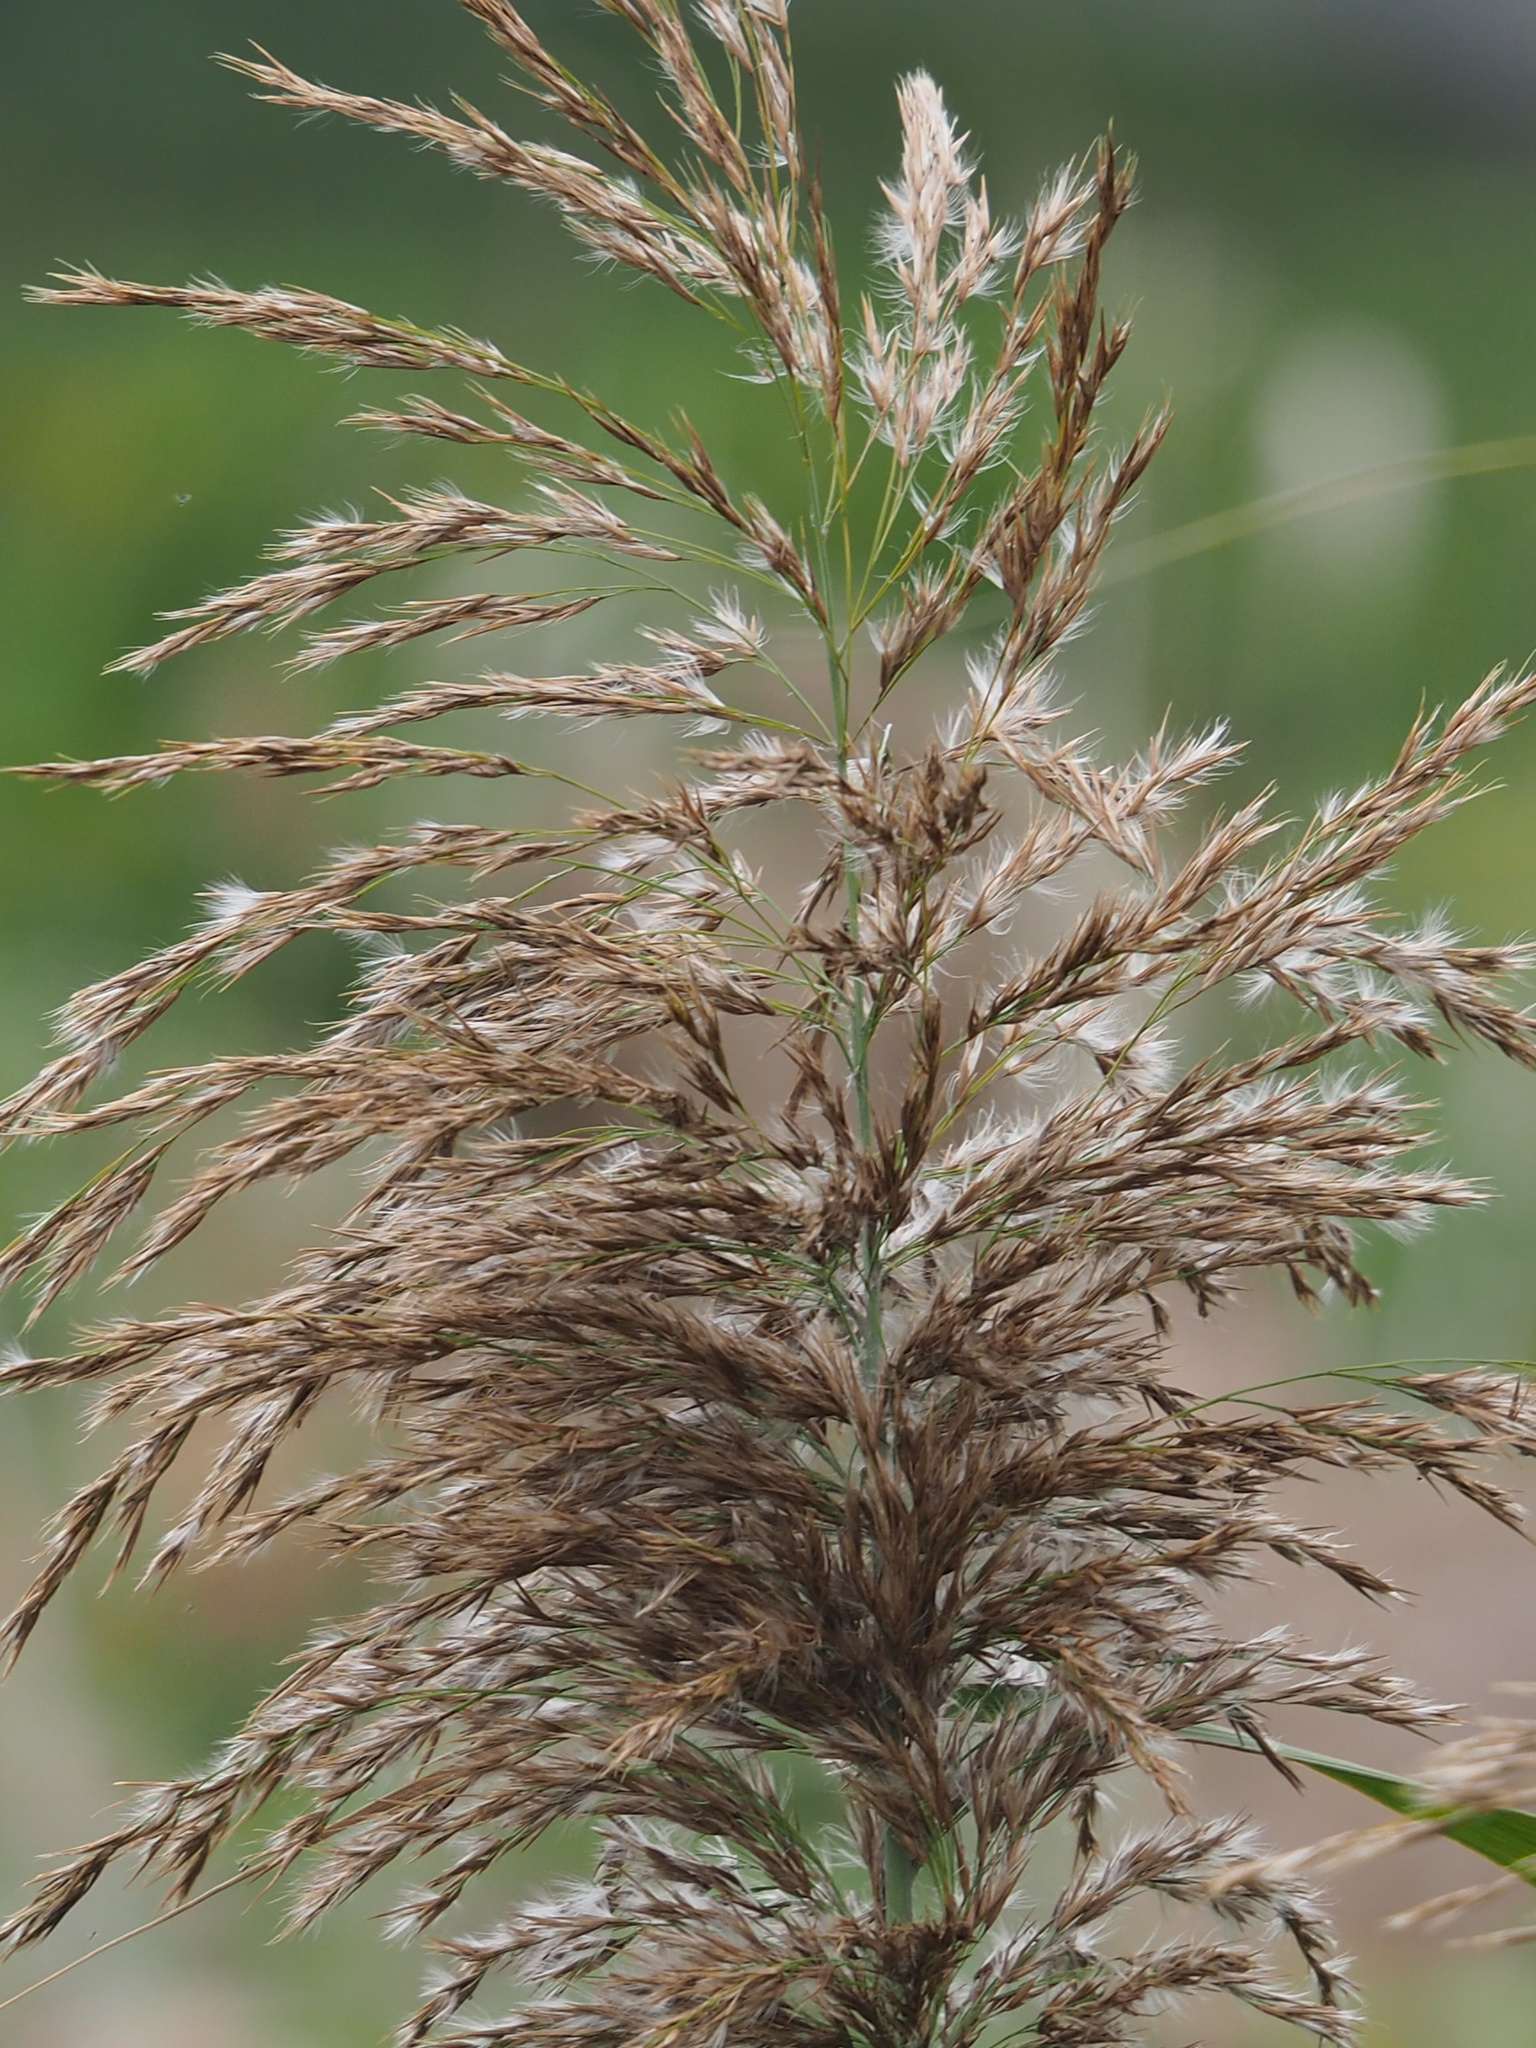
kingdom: Plantae
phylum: Tracheophyta
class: Liliopsida
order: Poales
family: Poaceae
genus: Phragmites
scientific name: Phragmites australis
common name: Common reed
